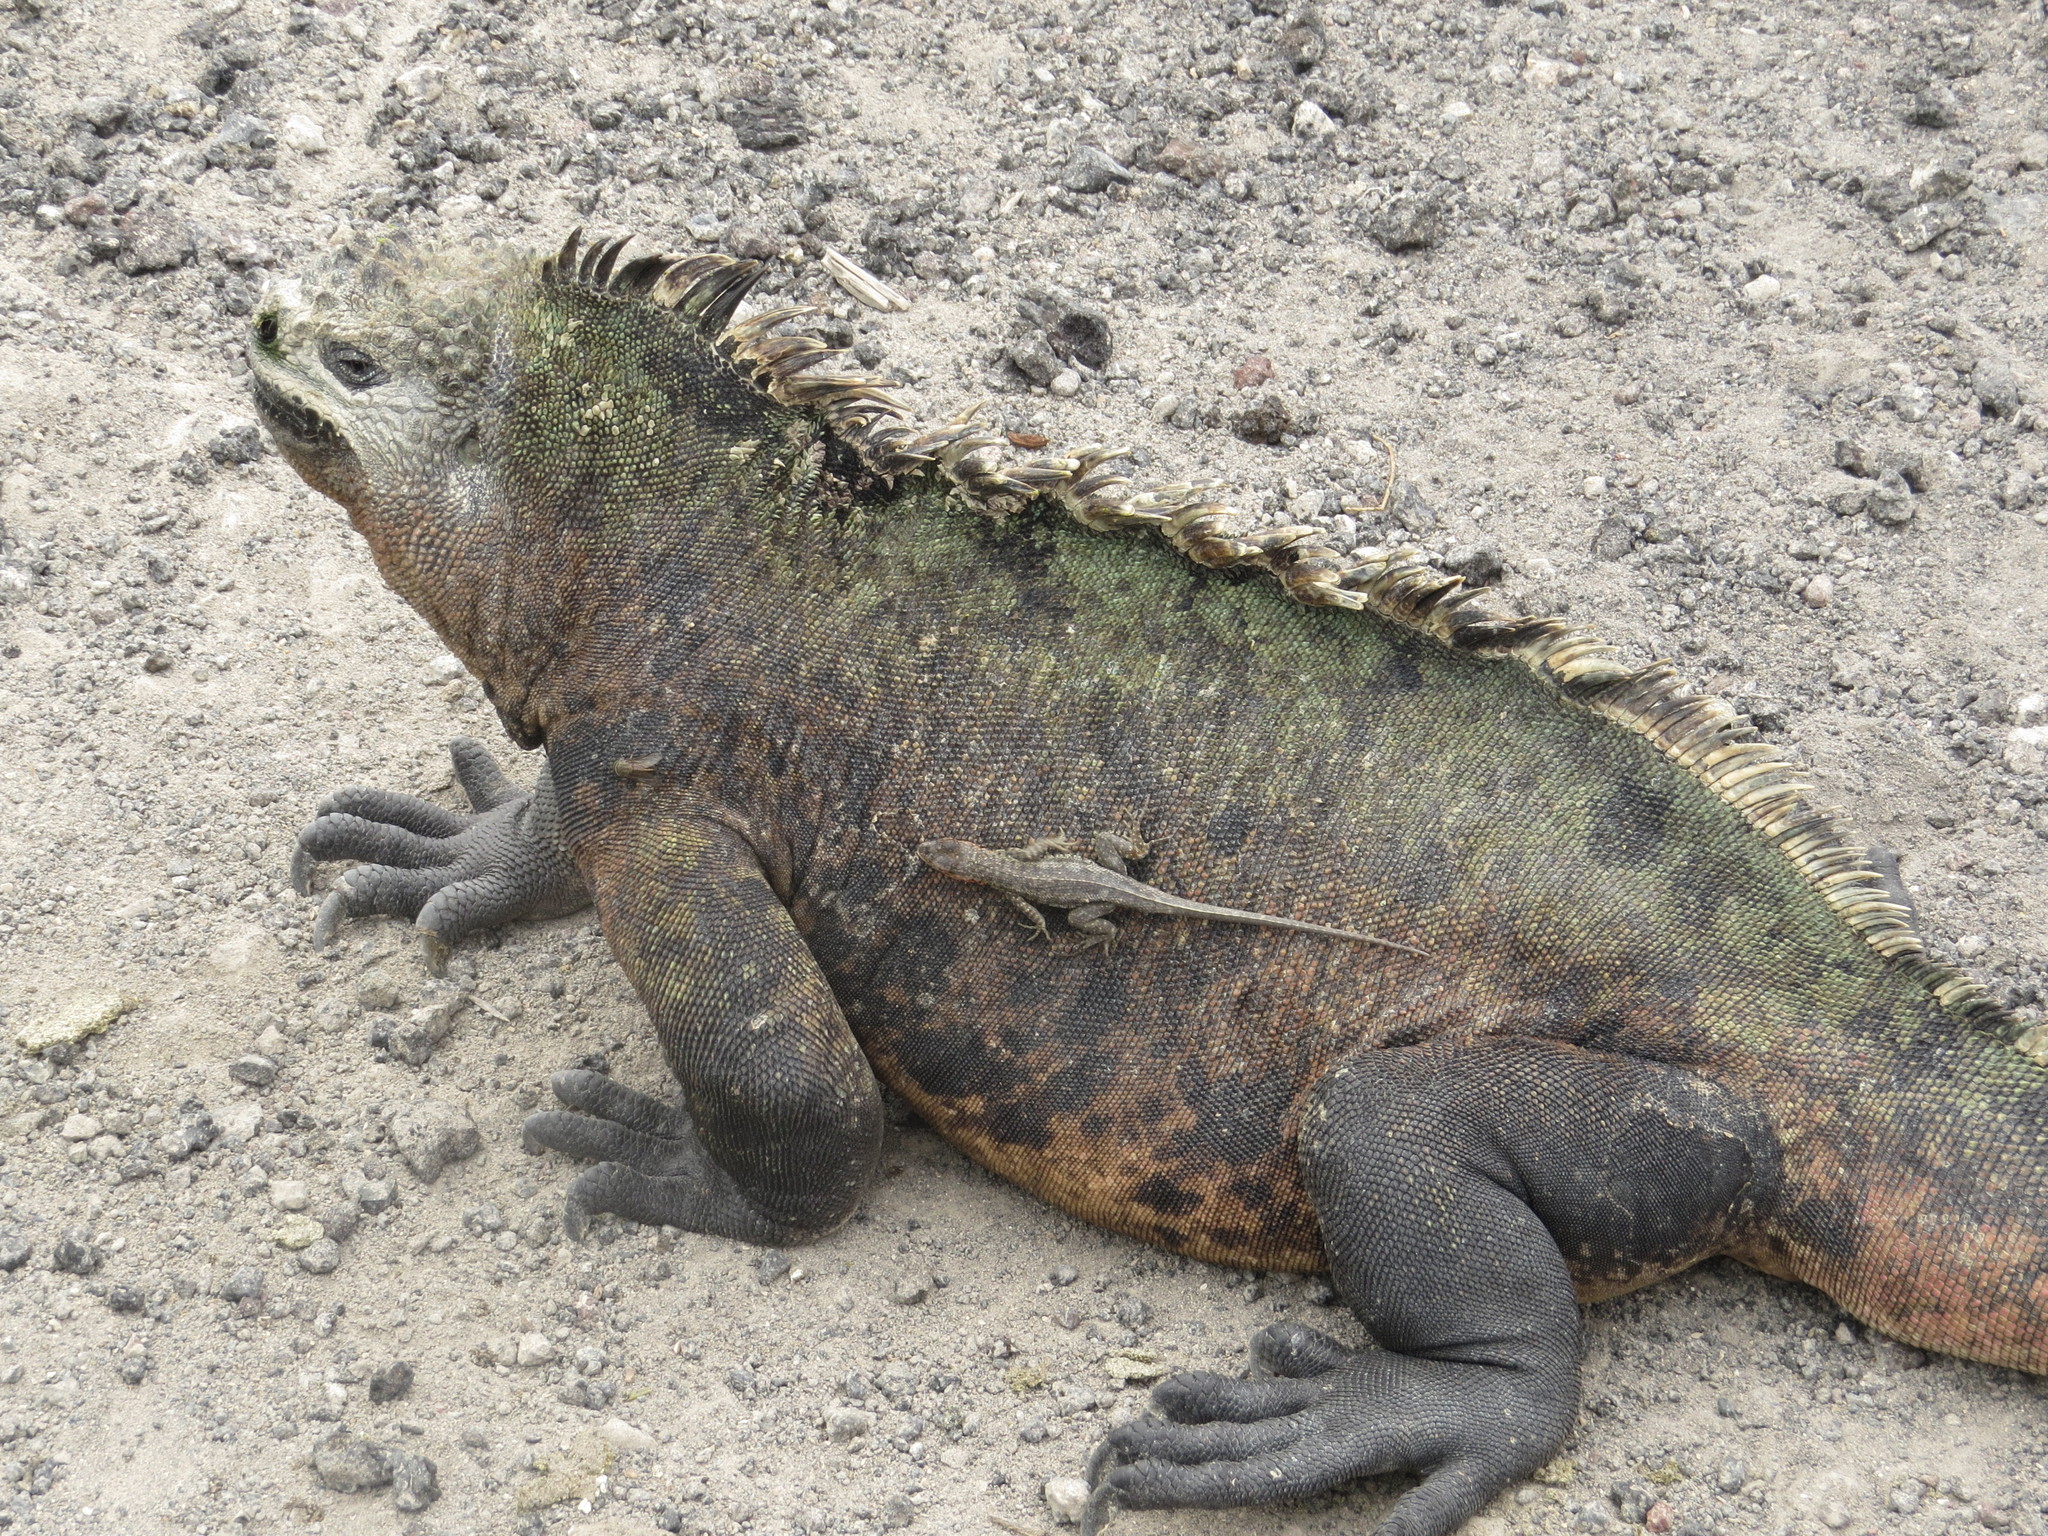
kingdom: Animalia
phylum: Chordata
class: Squamata
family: Tropiduridae
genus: Microlophus
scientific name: Microlophus albemarlensis
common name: Galapagos lava lizard
